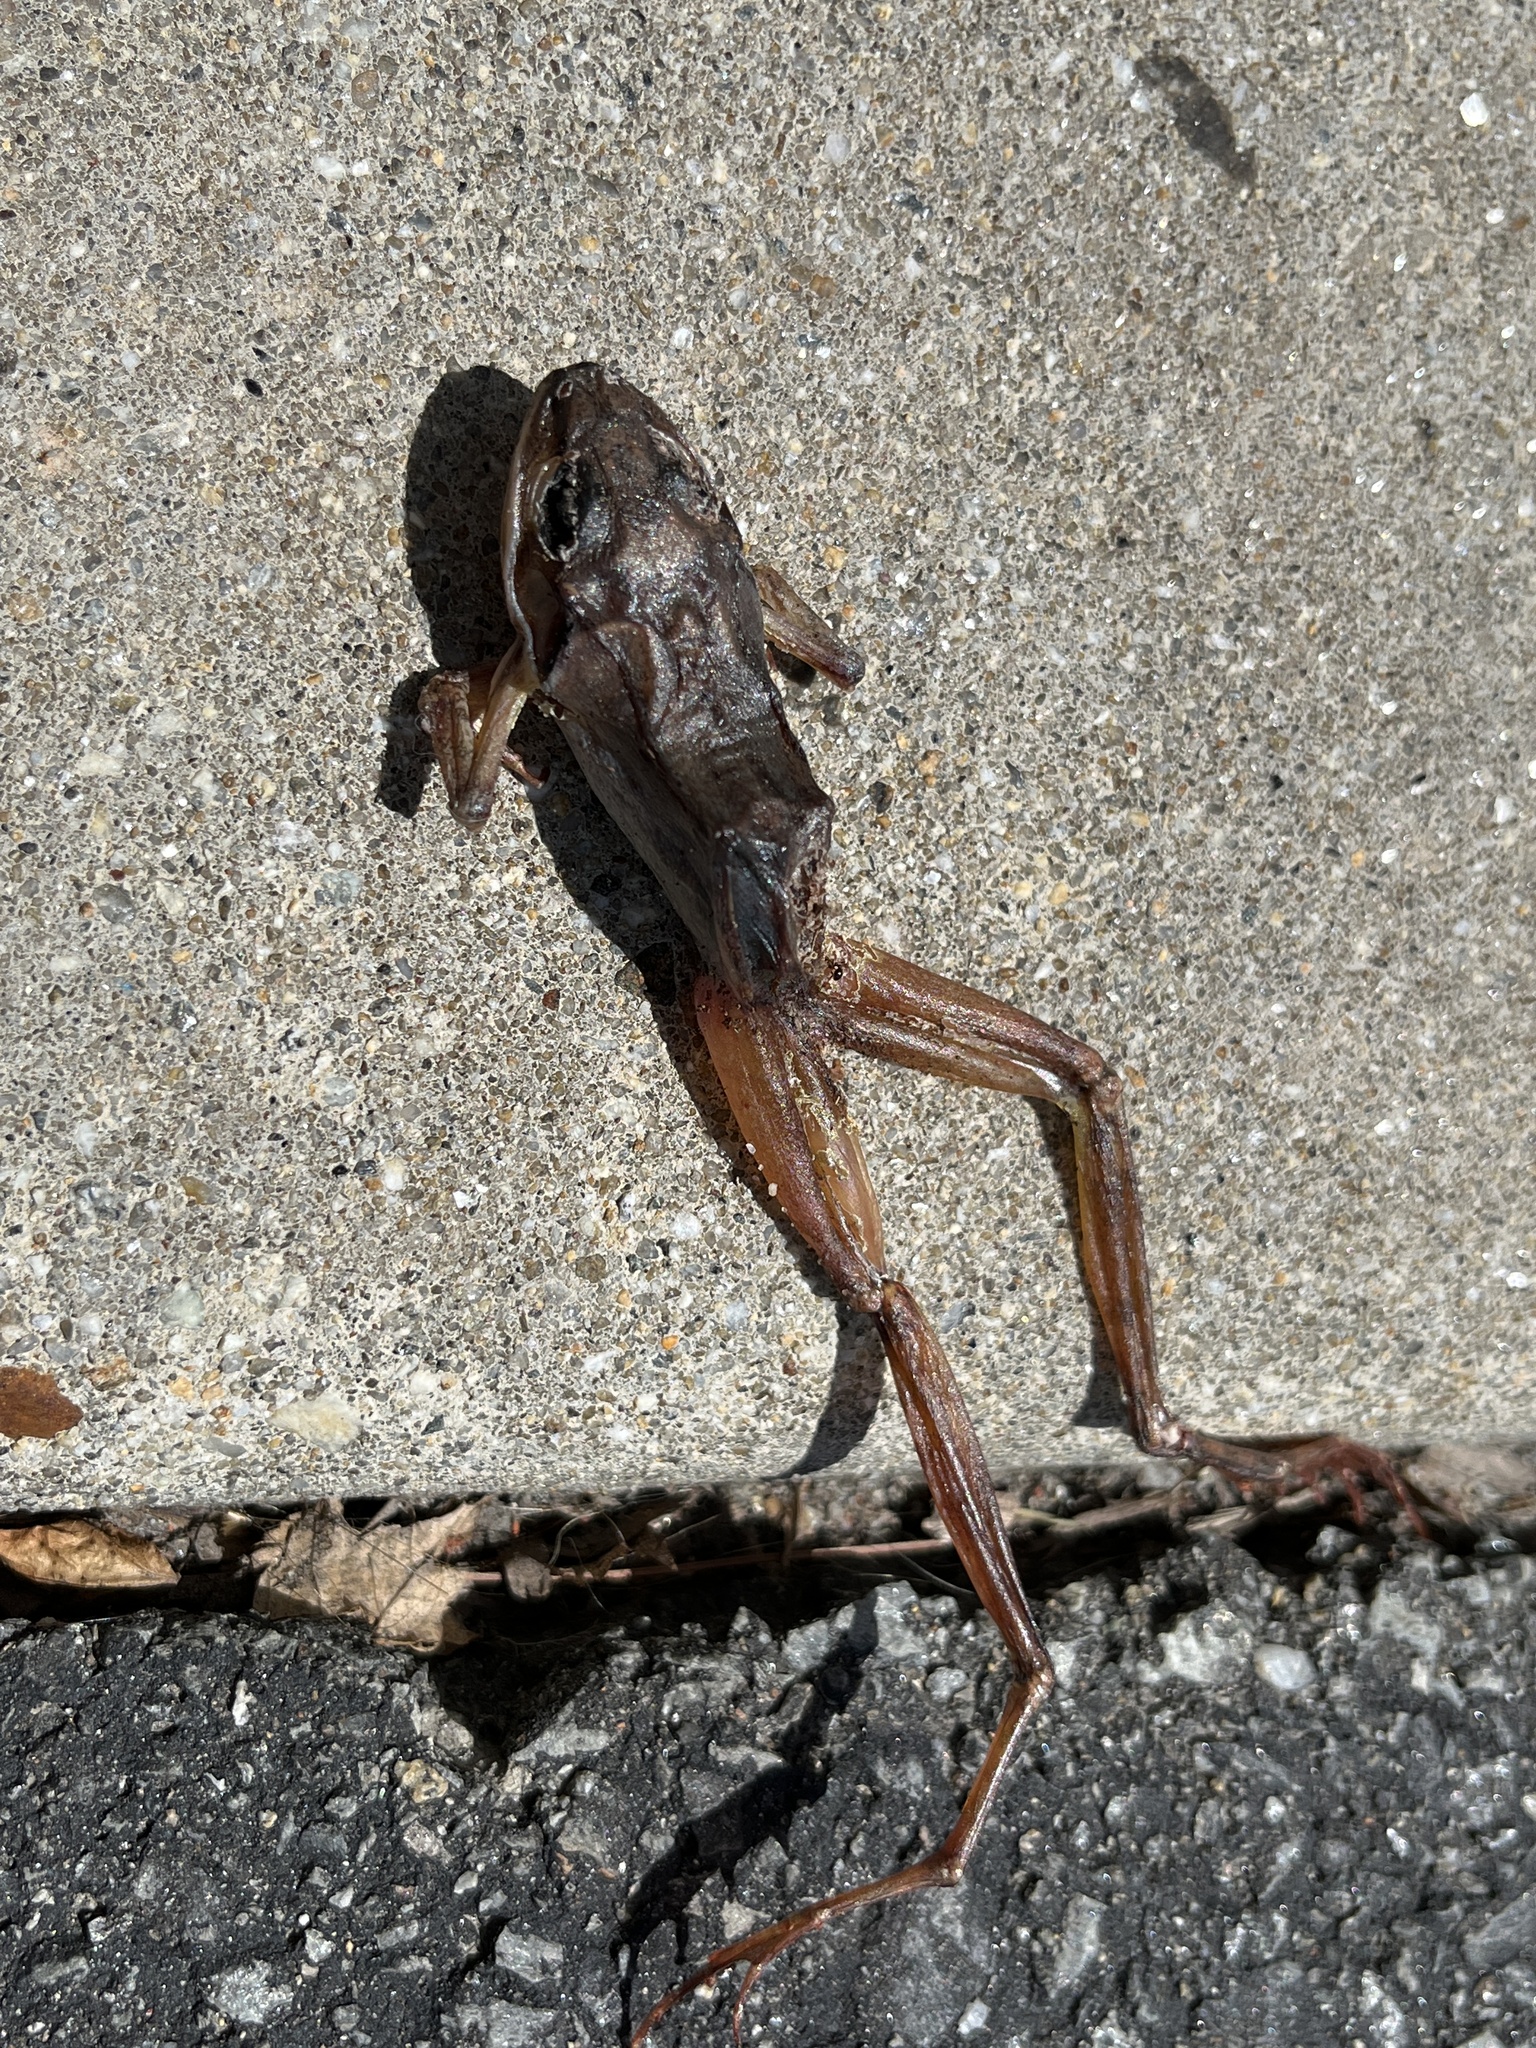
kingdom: Animalia
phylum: Chordata
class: Amphibia
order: Anura
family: Ranidae
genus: Lithobates
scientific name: Lithobates sylvaticus
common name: Wood frog
